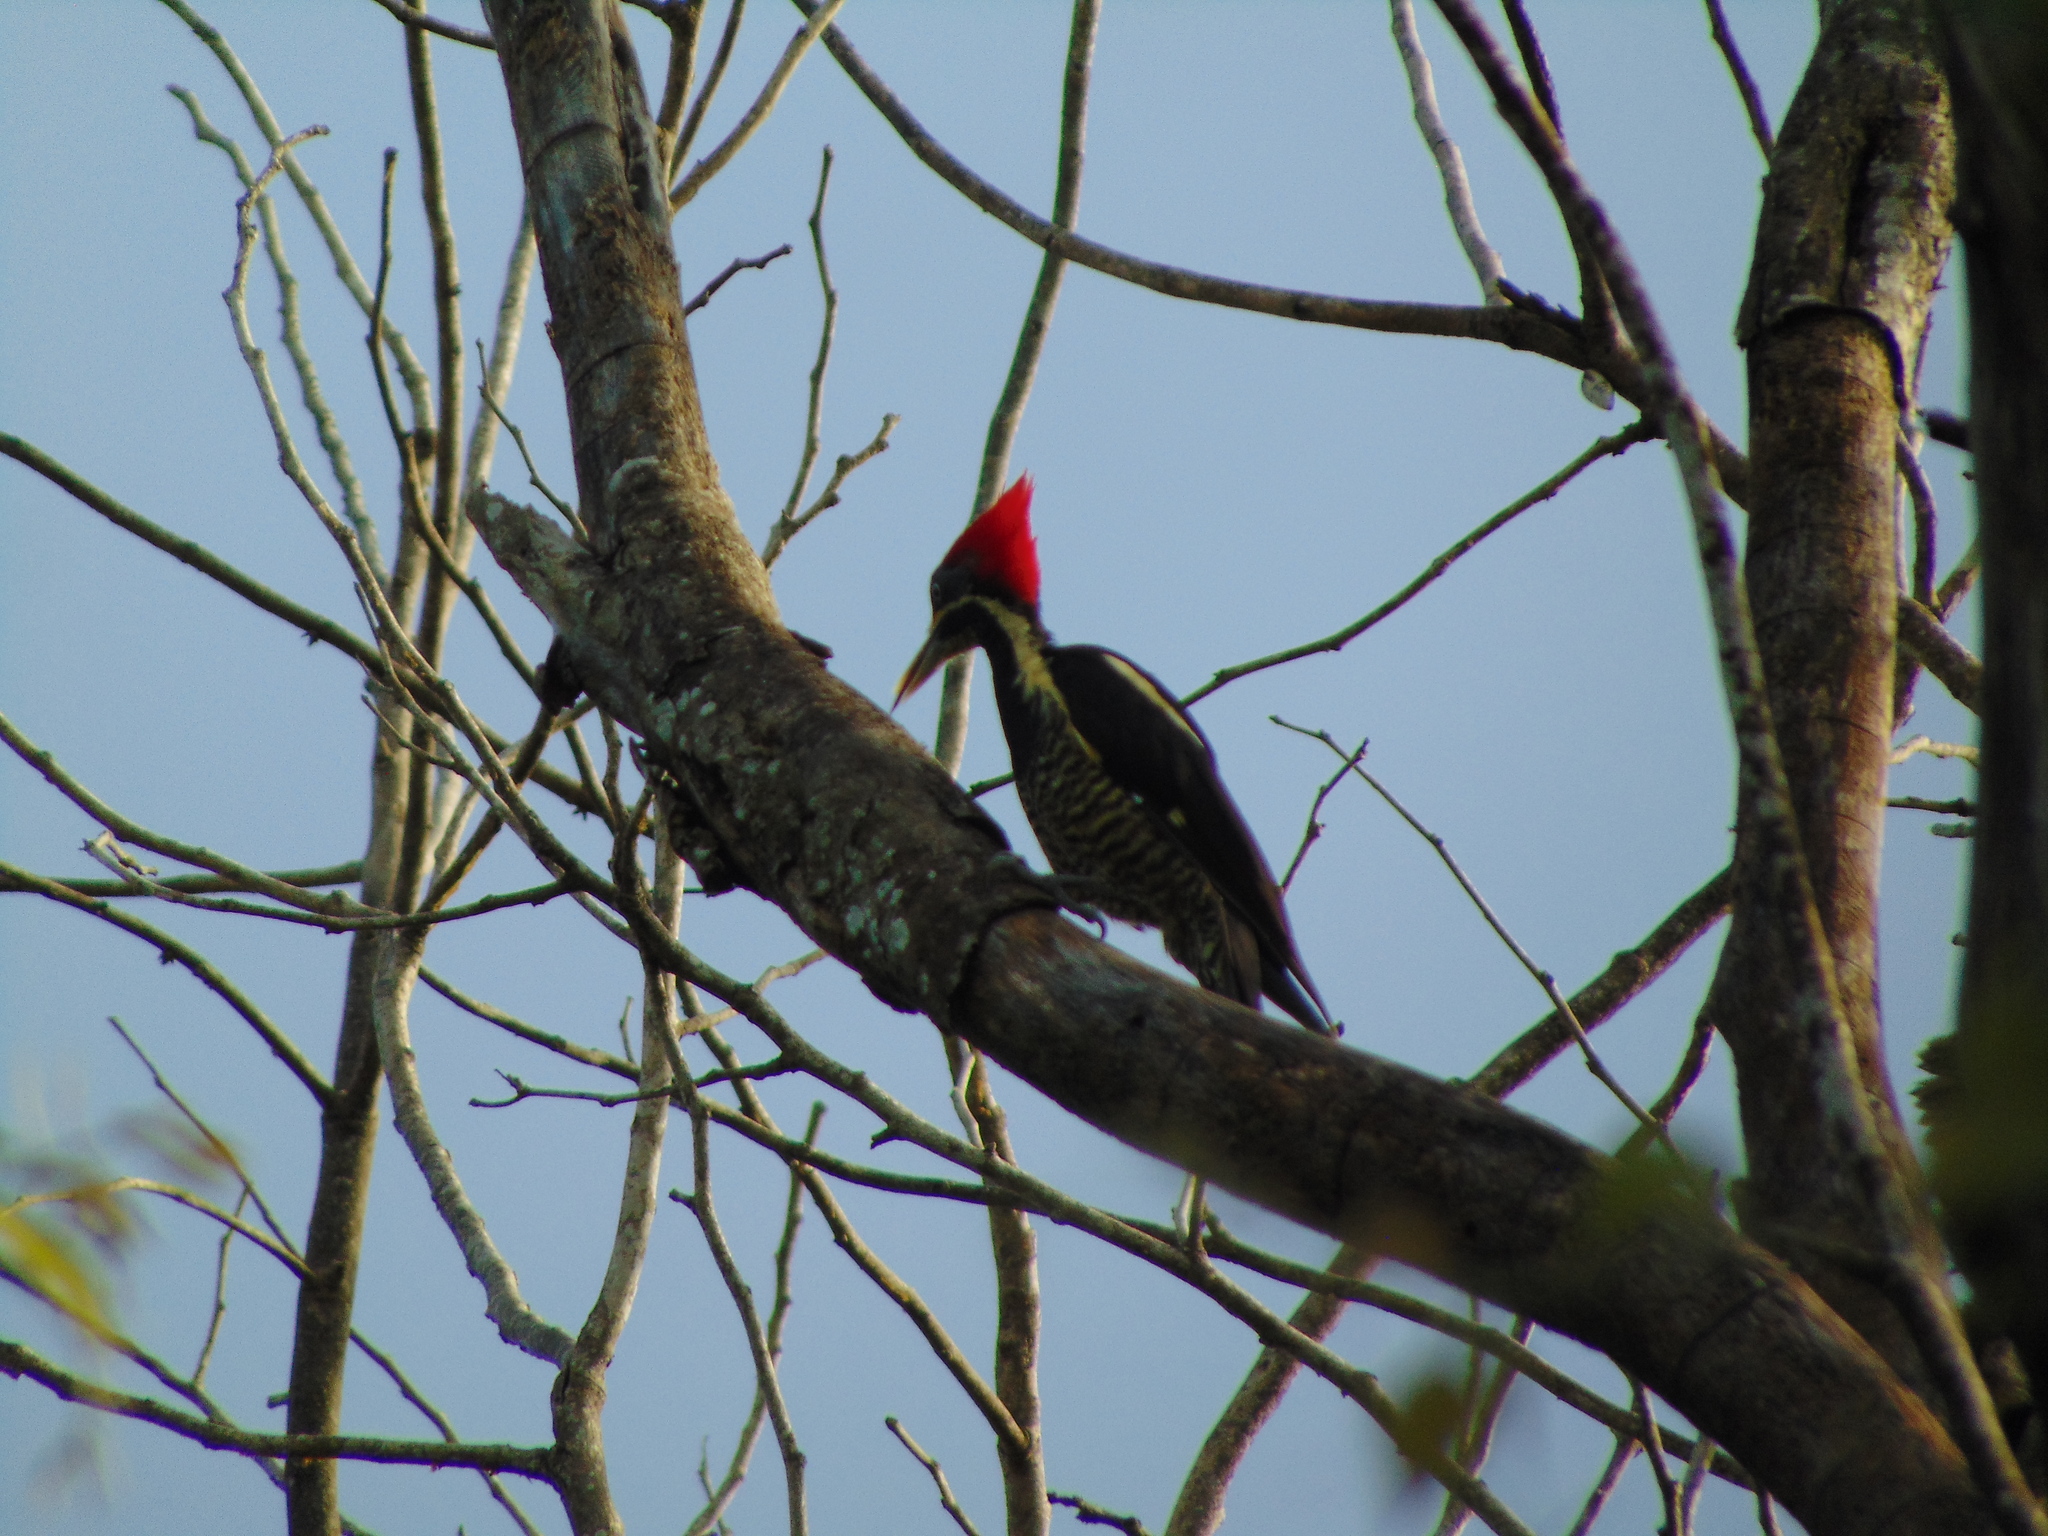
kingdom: Animalia
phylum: Chordata
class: Aves
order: Piciformes
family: Picidae
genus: Dryocopus
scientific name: Dryocopus lineatus
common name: Lineated woodpecker
